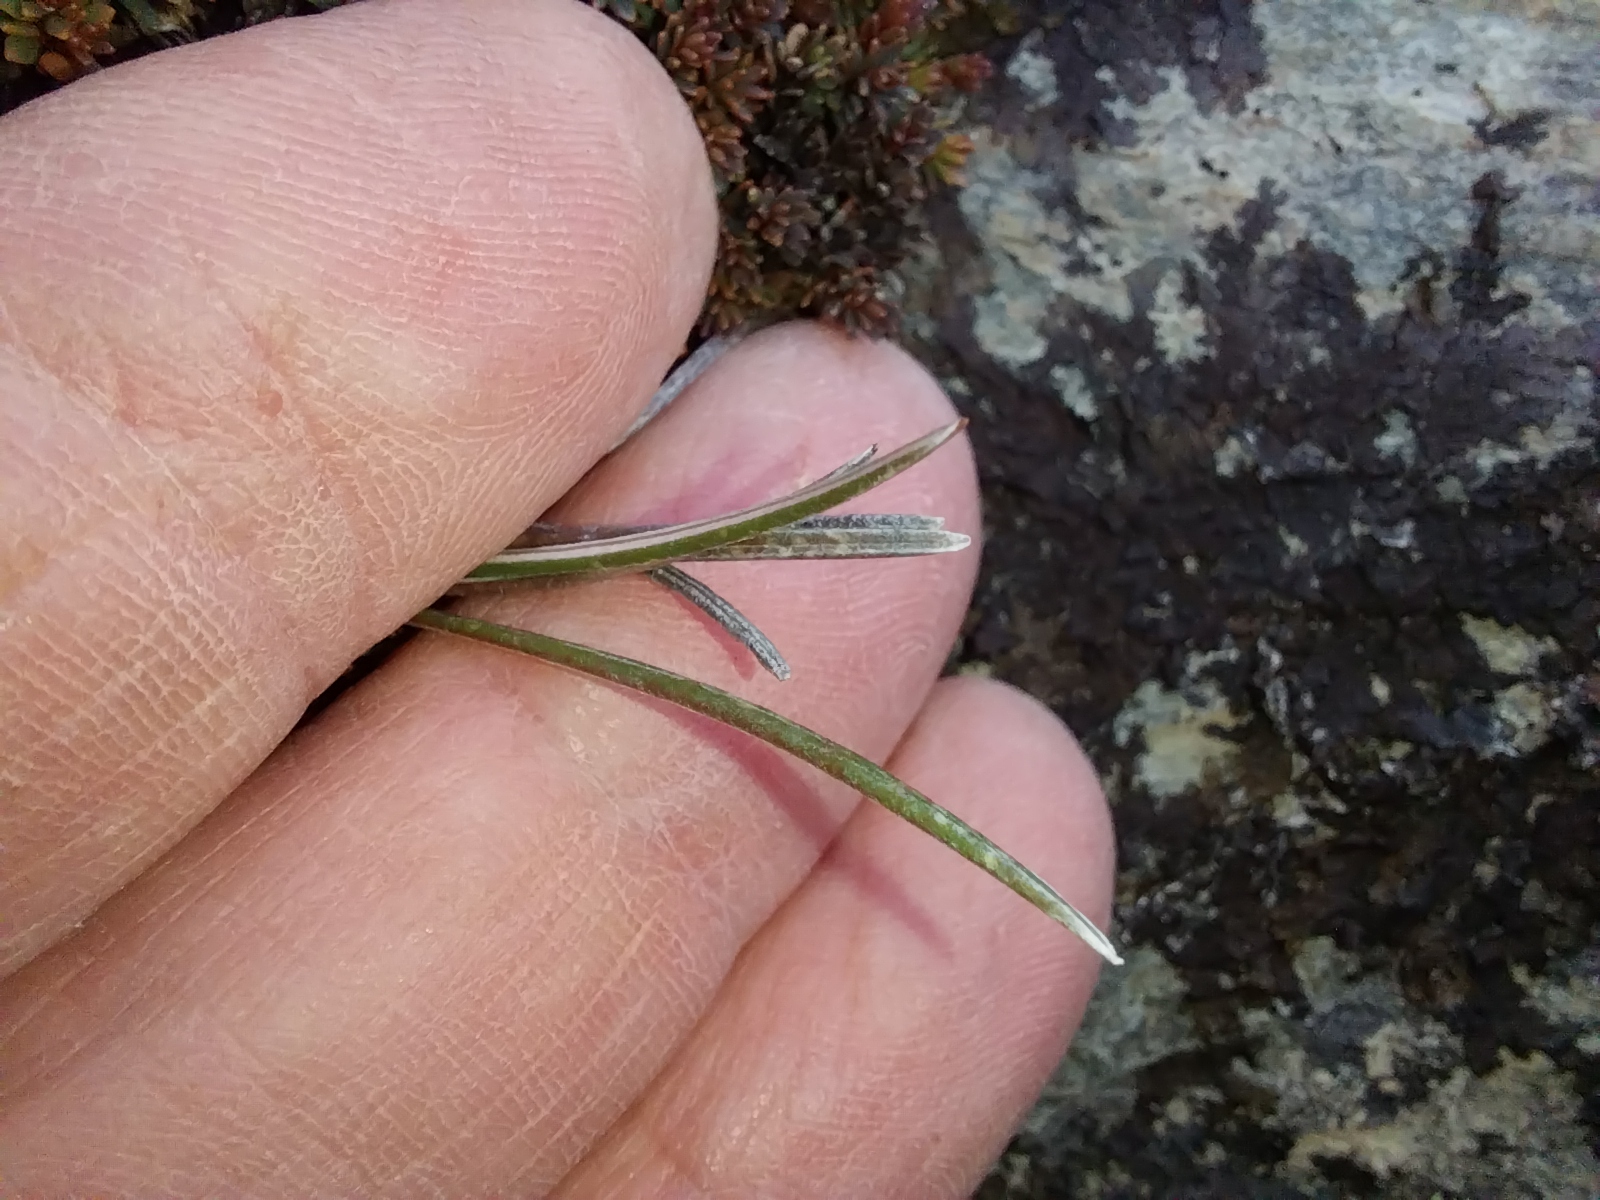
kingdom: Plantae
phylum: Tracheophyta
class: Magnoliopsida
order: Asterales
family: Asteraceae
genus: Celmisia
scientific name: Celmisia gracilenta
